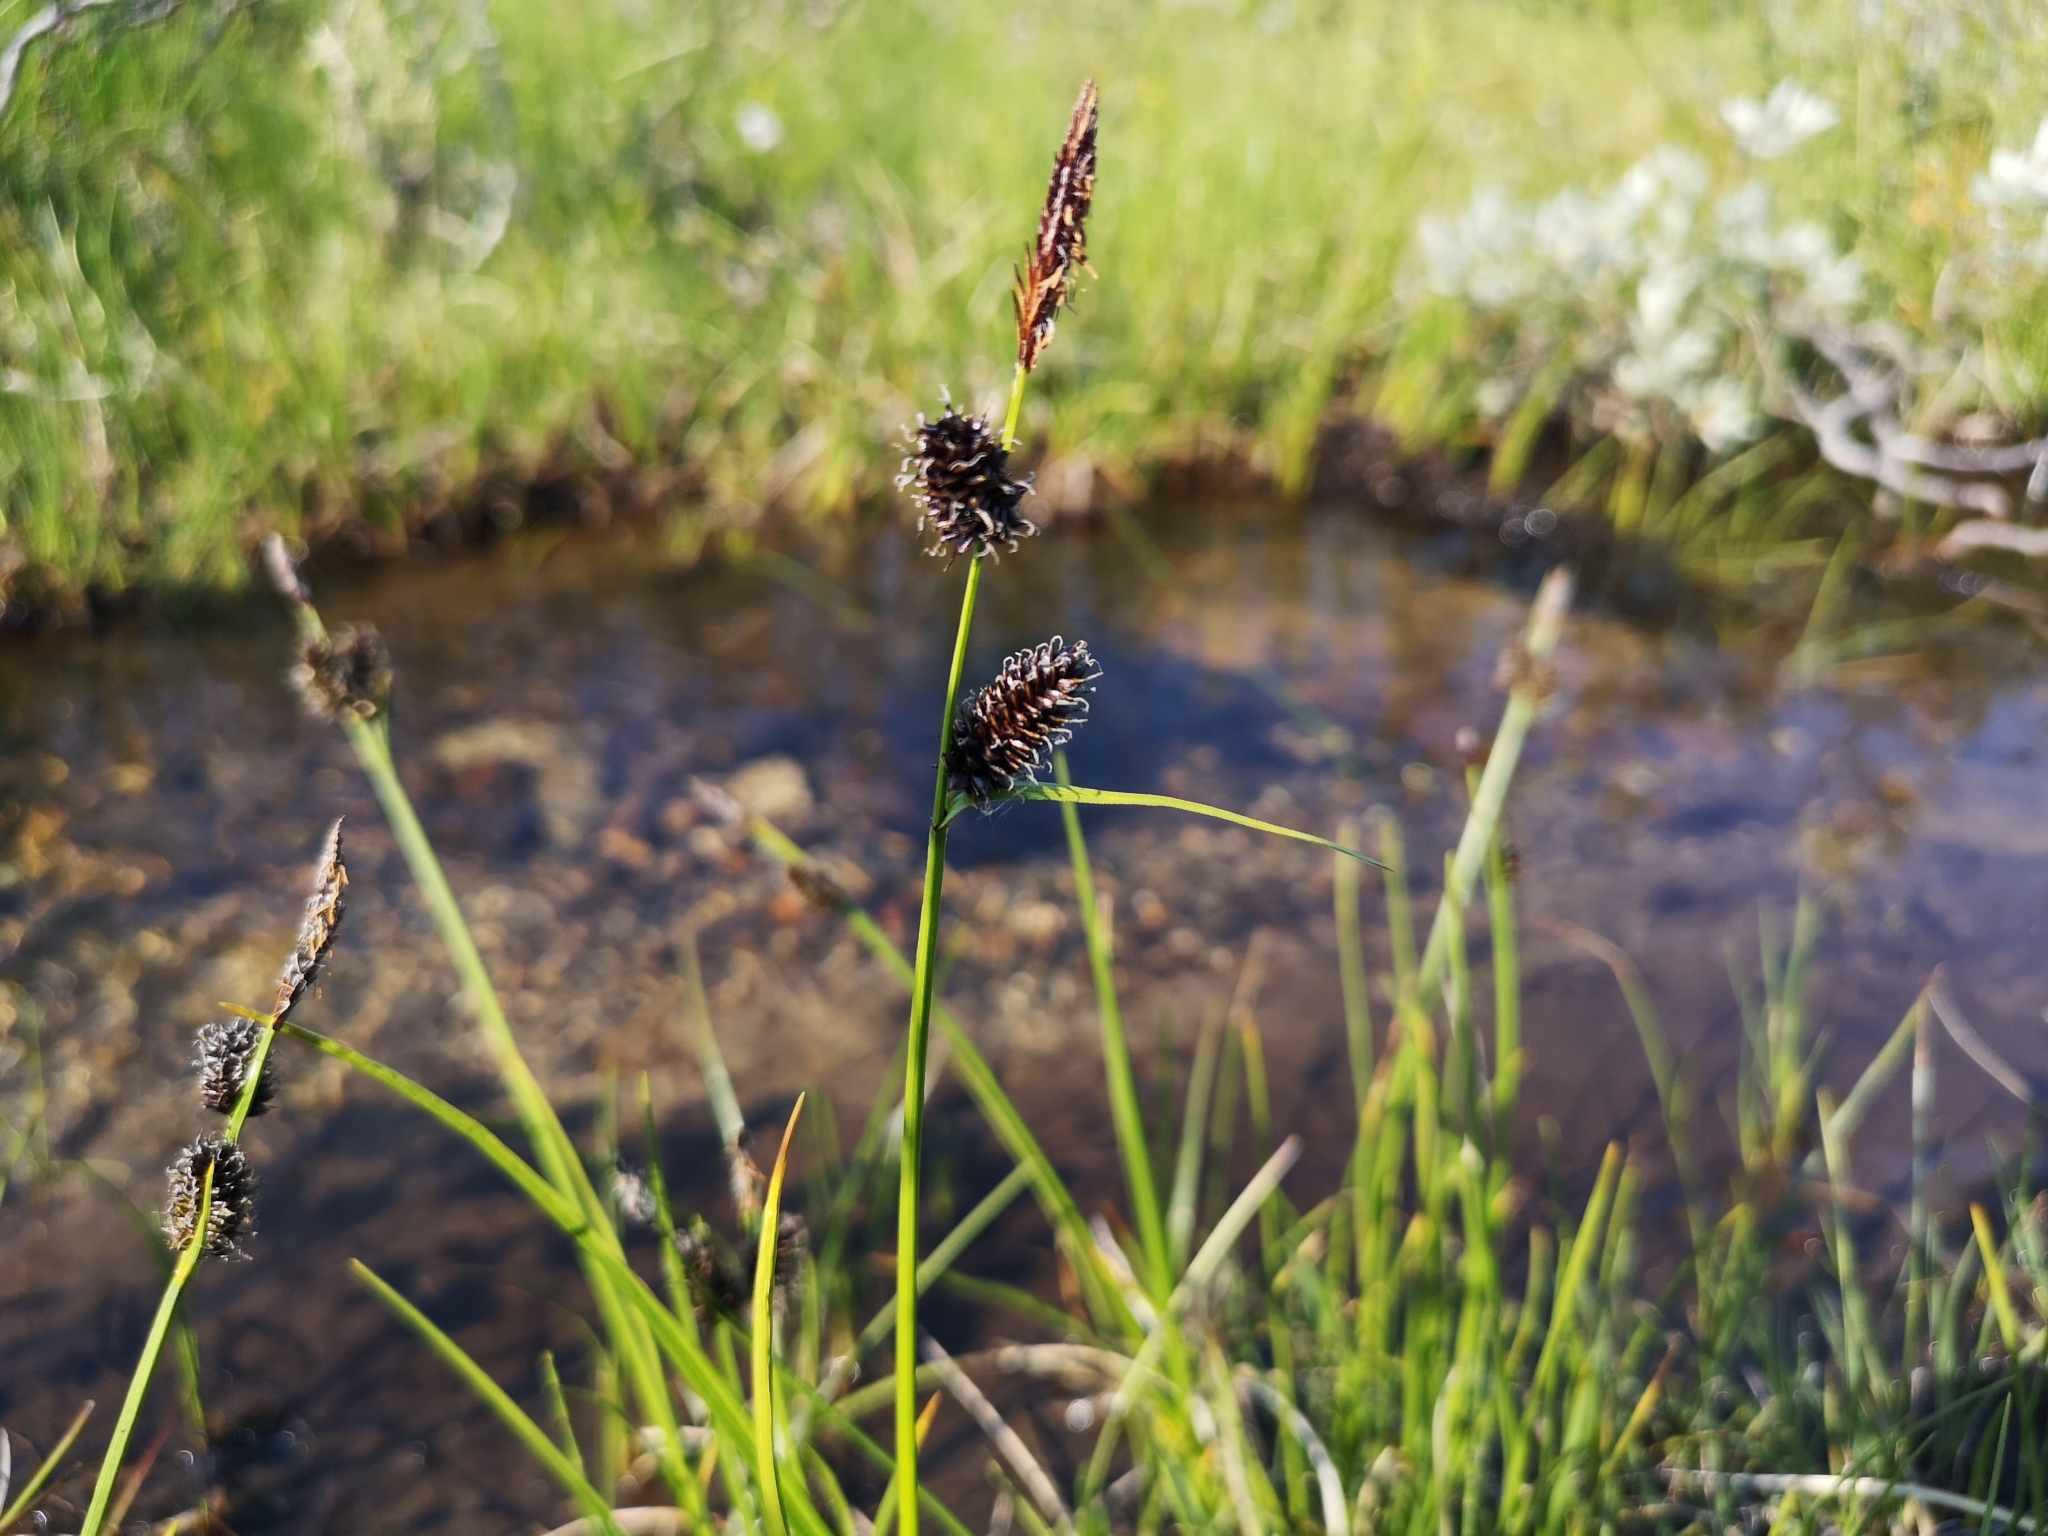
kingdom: Plantae
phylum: Tracheophyta
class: Liliopsida
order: Poales
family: Cyperaceae
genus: Carex
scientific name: Carex saxatilis
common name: Russet sedge
